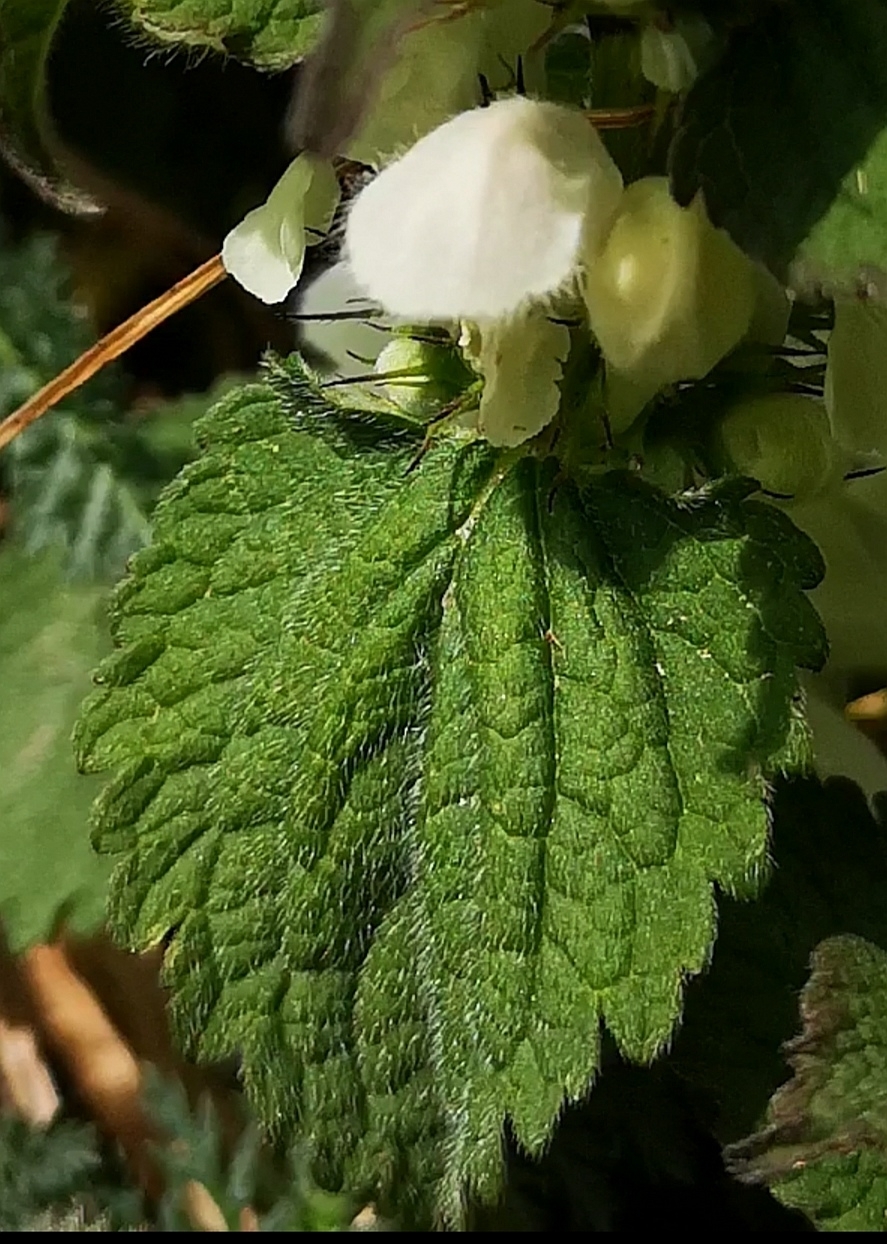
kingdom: Plantae
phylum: Tracheophyta
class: Magnoliopsida
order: Lamiales
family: Lamiaceae
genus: Lamium
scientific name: Lamium album
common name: White dead-nettle
